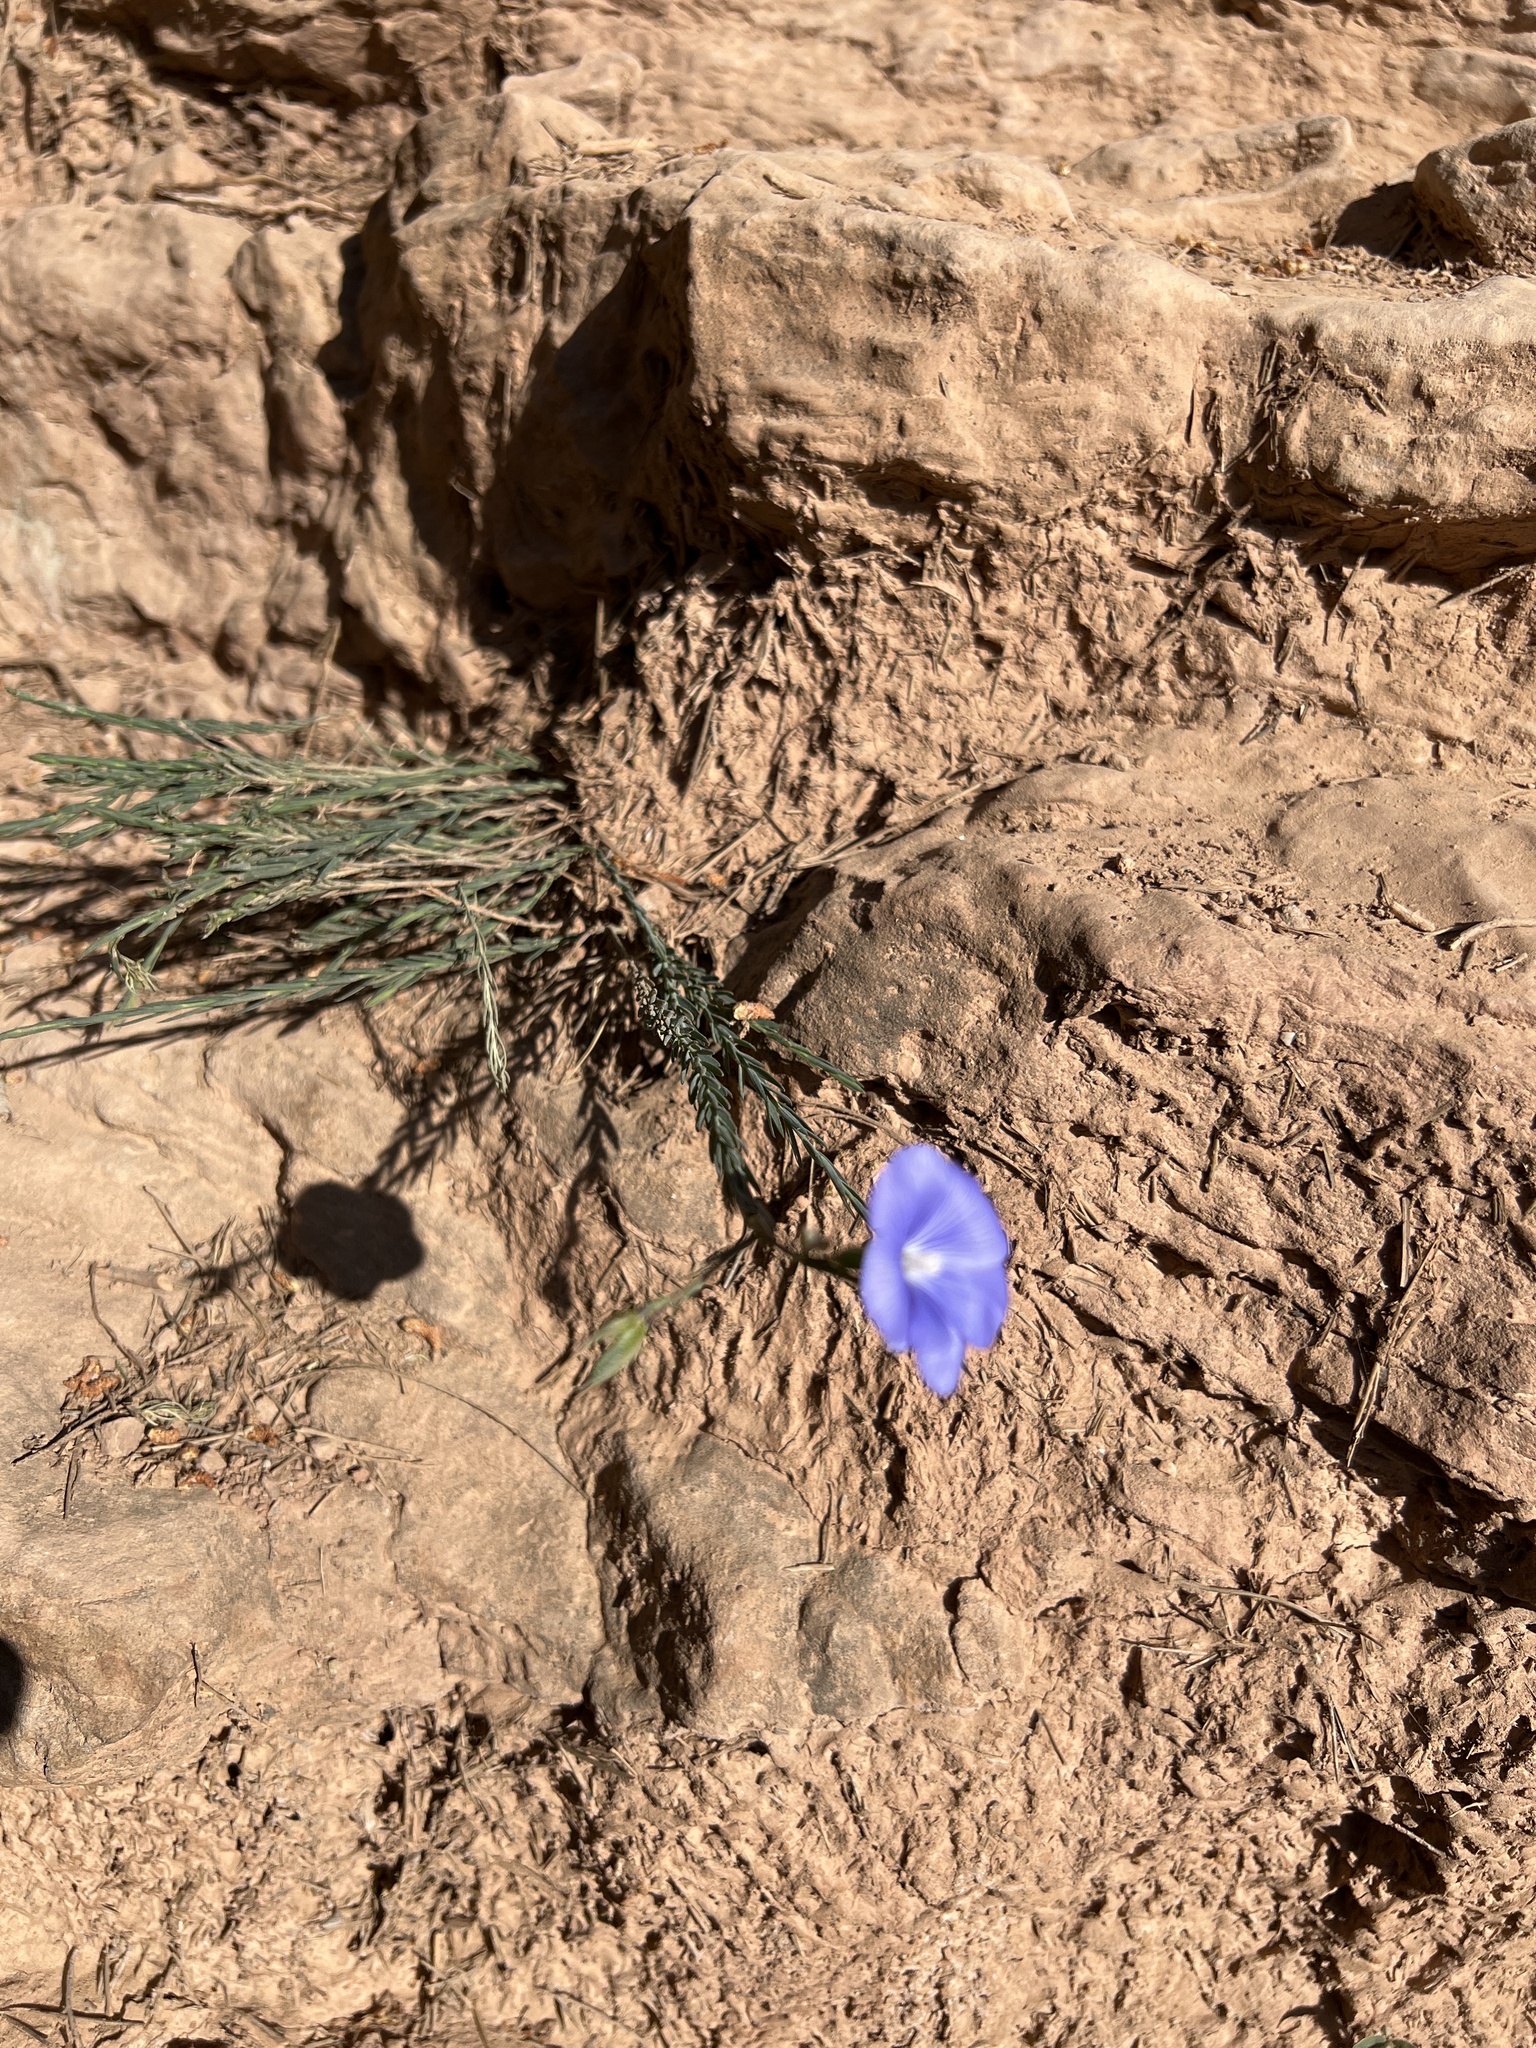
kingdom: Plantae
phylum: Tracheophyta
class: Magnoliopsida
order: Malpighiales
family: Linaceae
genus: Linum
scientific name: Linum narbonense
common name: Flax
